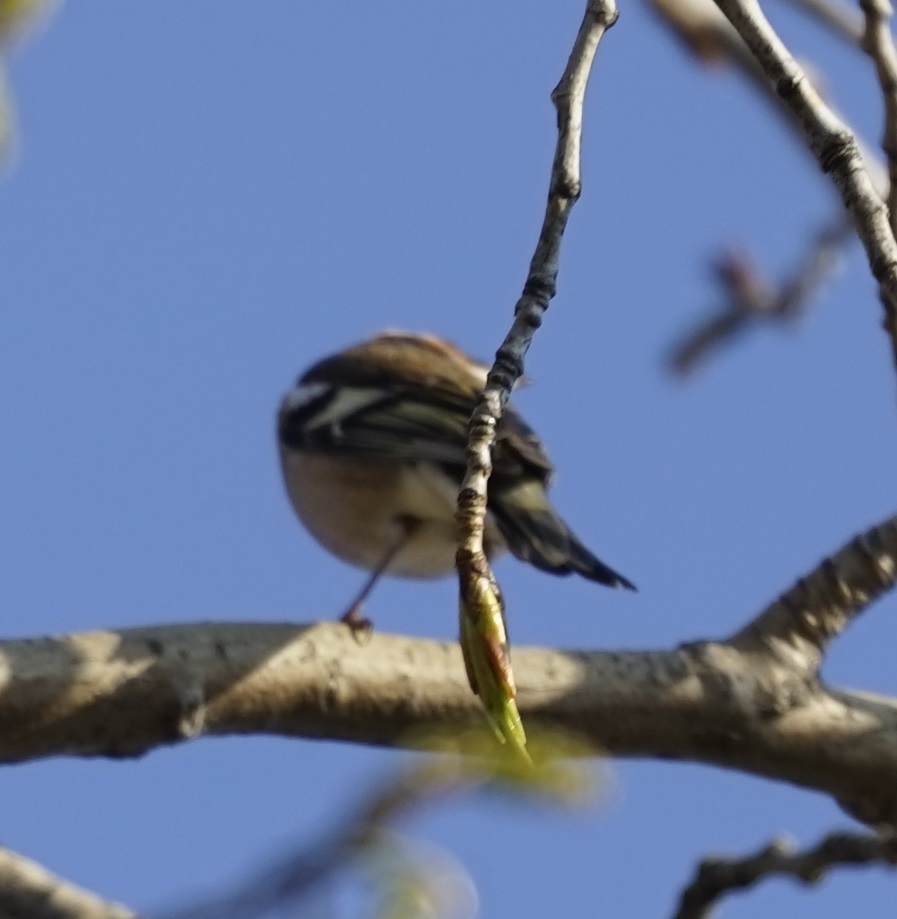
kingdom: Animalia
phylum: Chordata
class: Aves
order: Passeriformes
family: Fringillidae
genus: Fringilla
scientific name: Fringilla coelebs
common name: Common chaffinch
